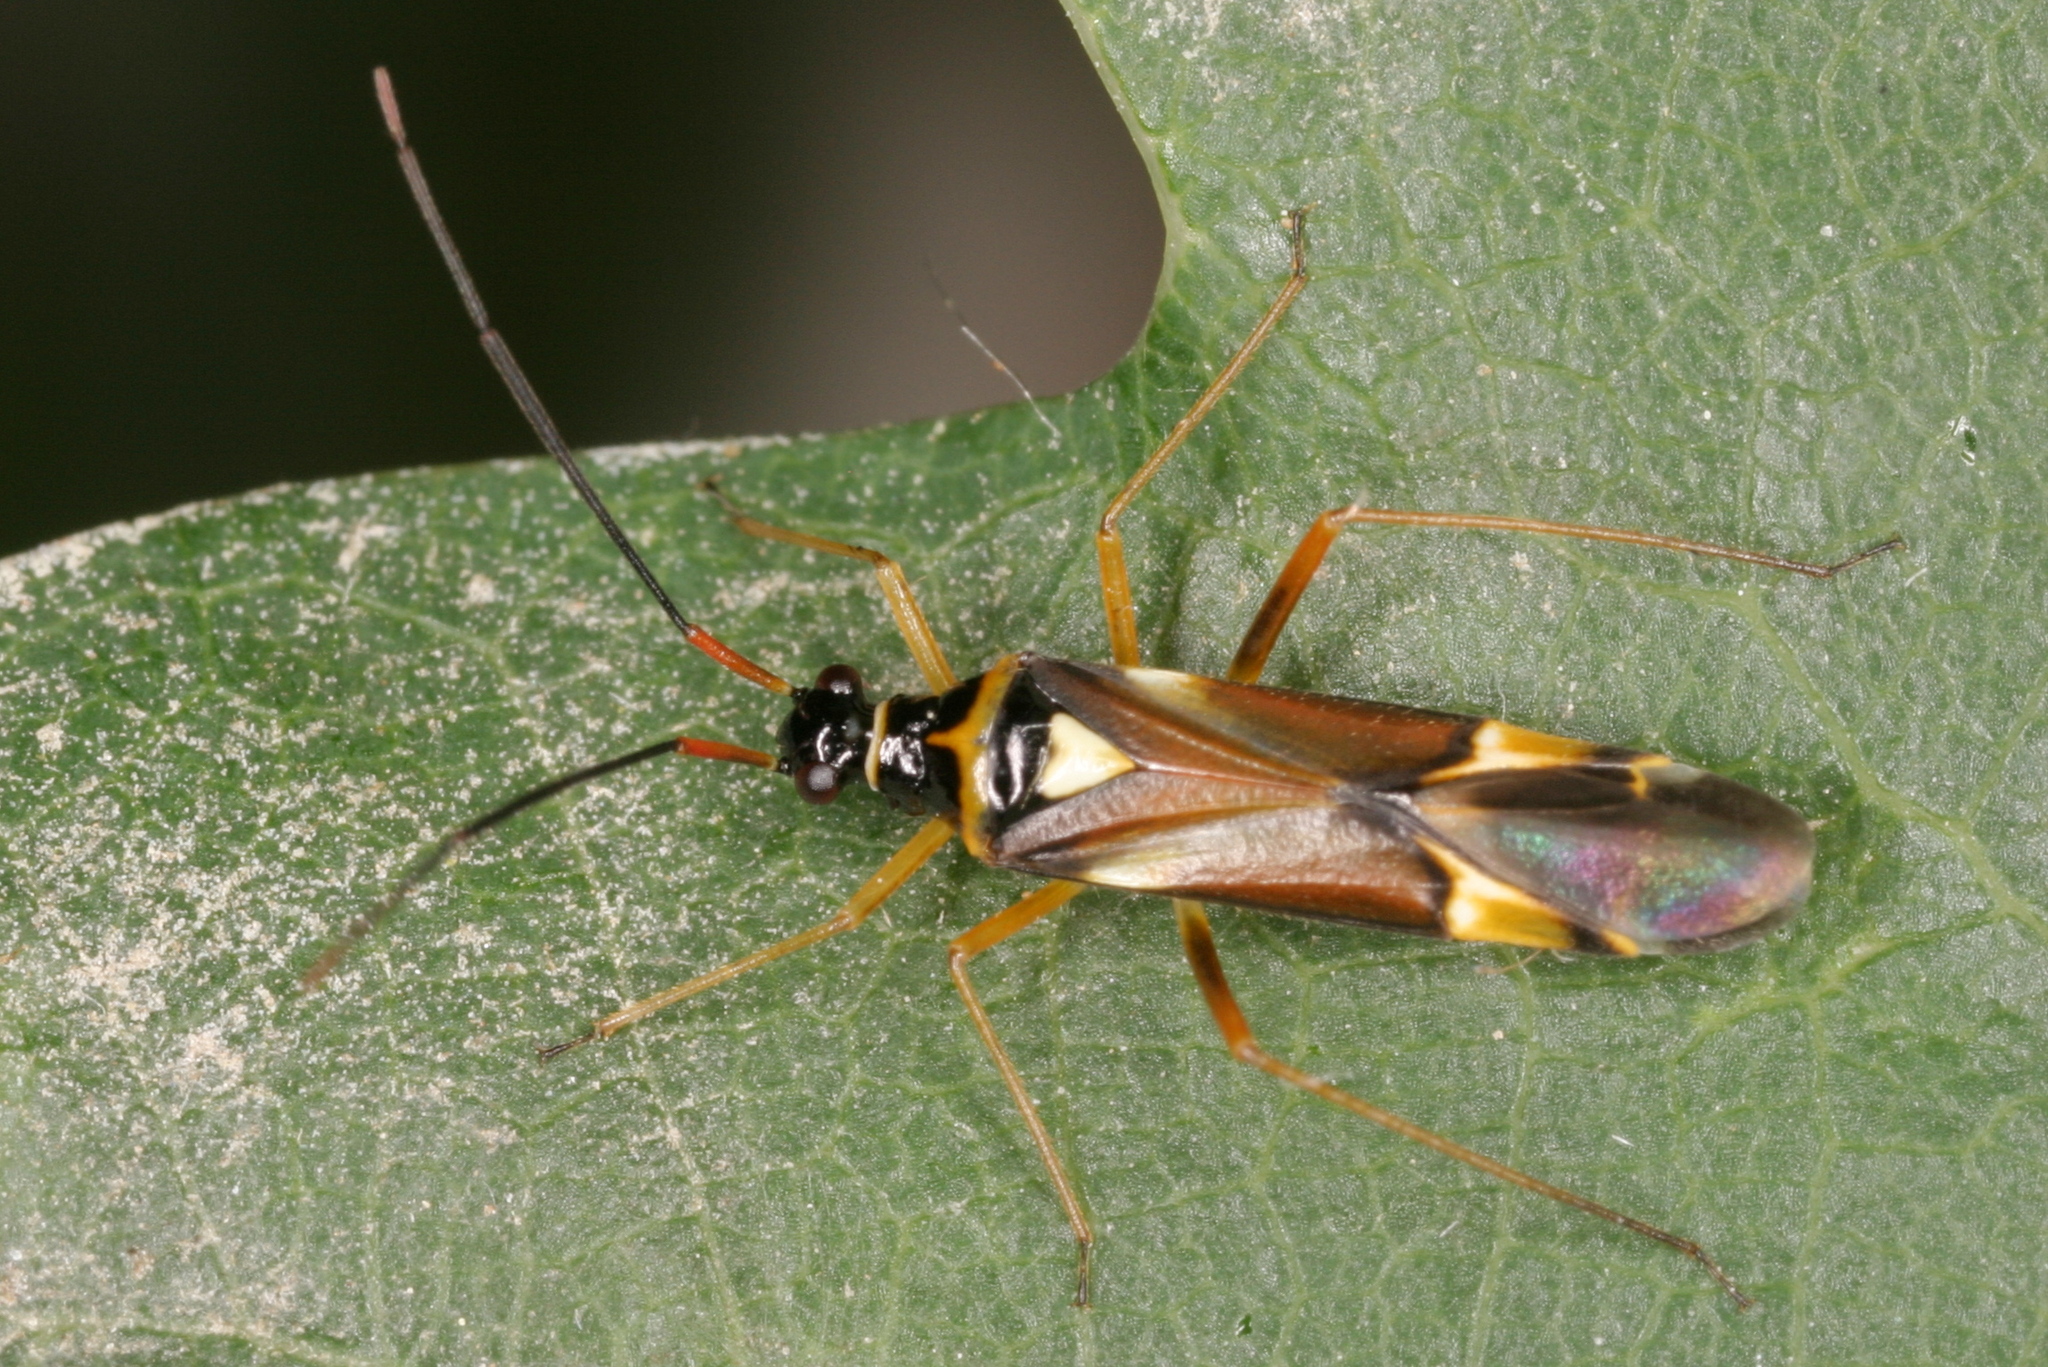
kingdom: Animalia
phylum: Arthropoda
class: Insecta
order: Hemiptera
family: Miridae
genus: Cyllecoris
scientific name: Cyllecoris histrionius
